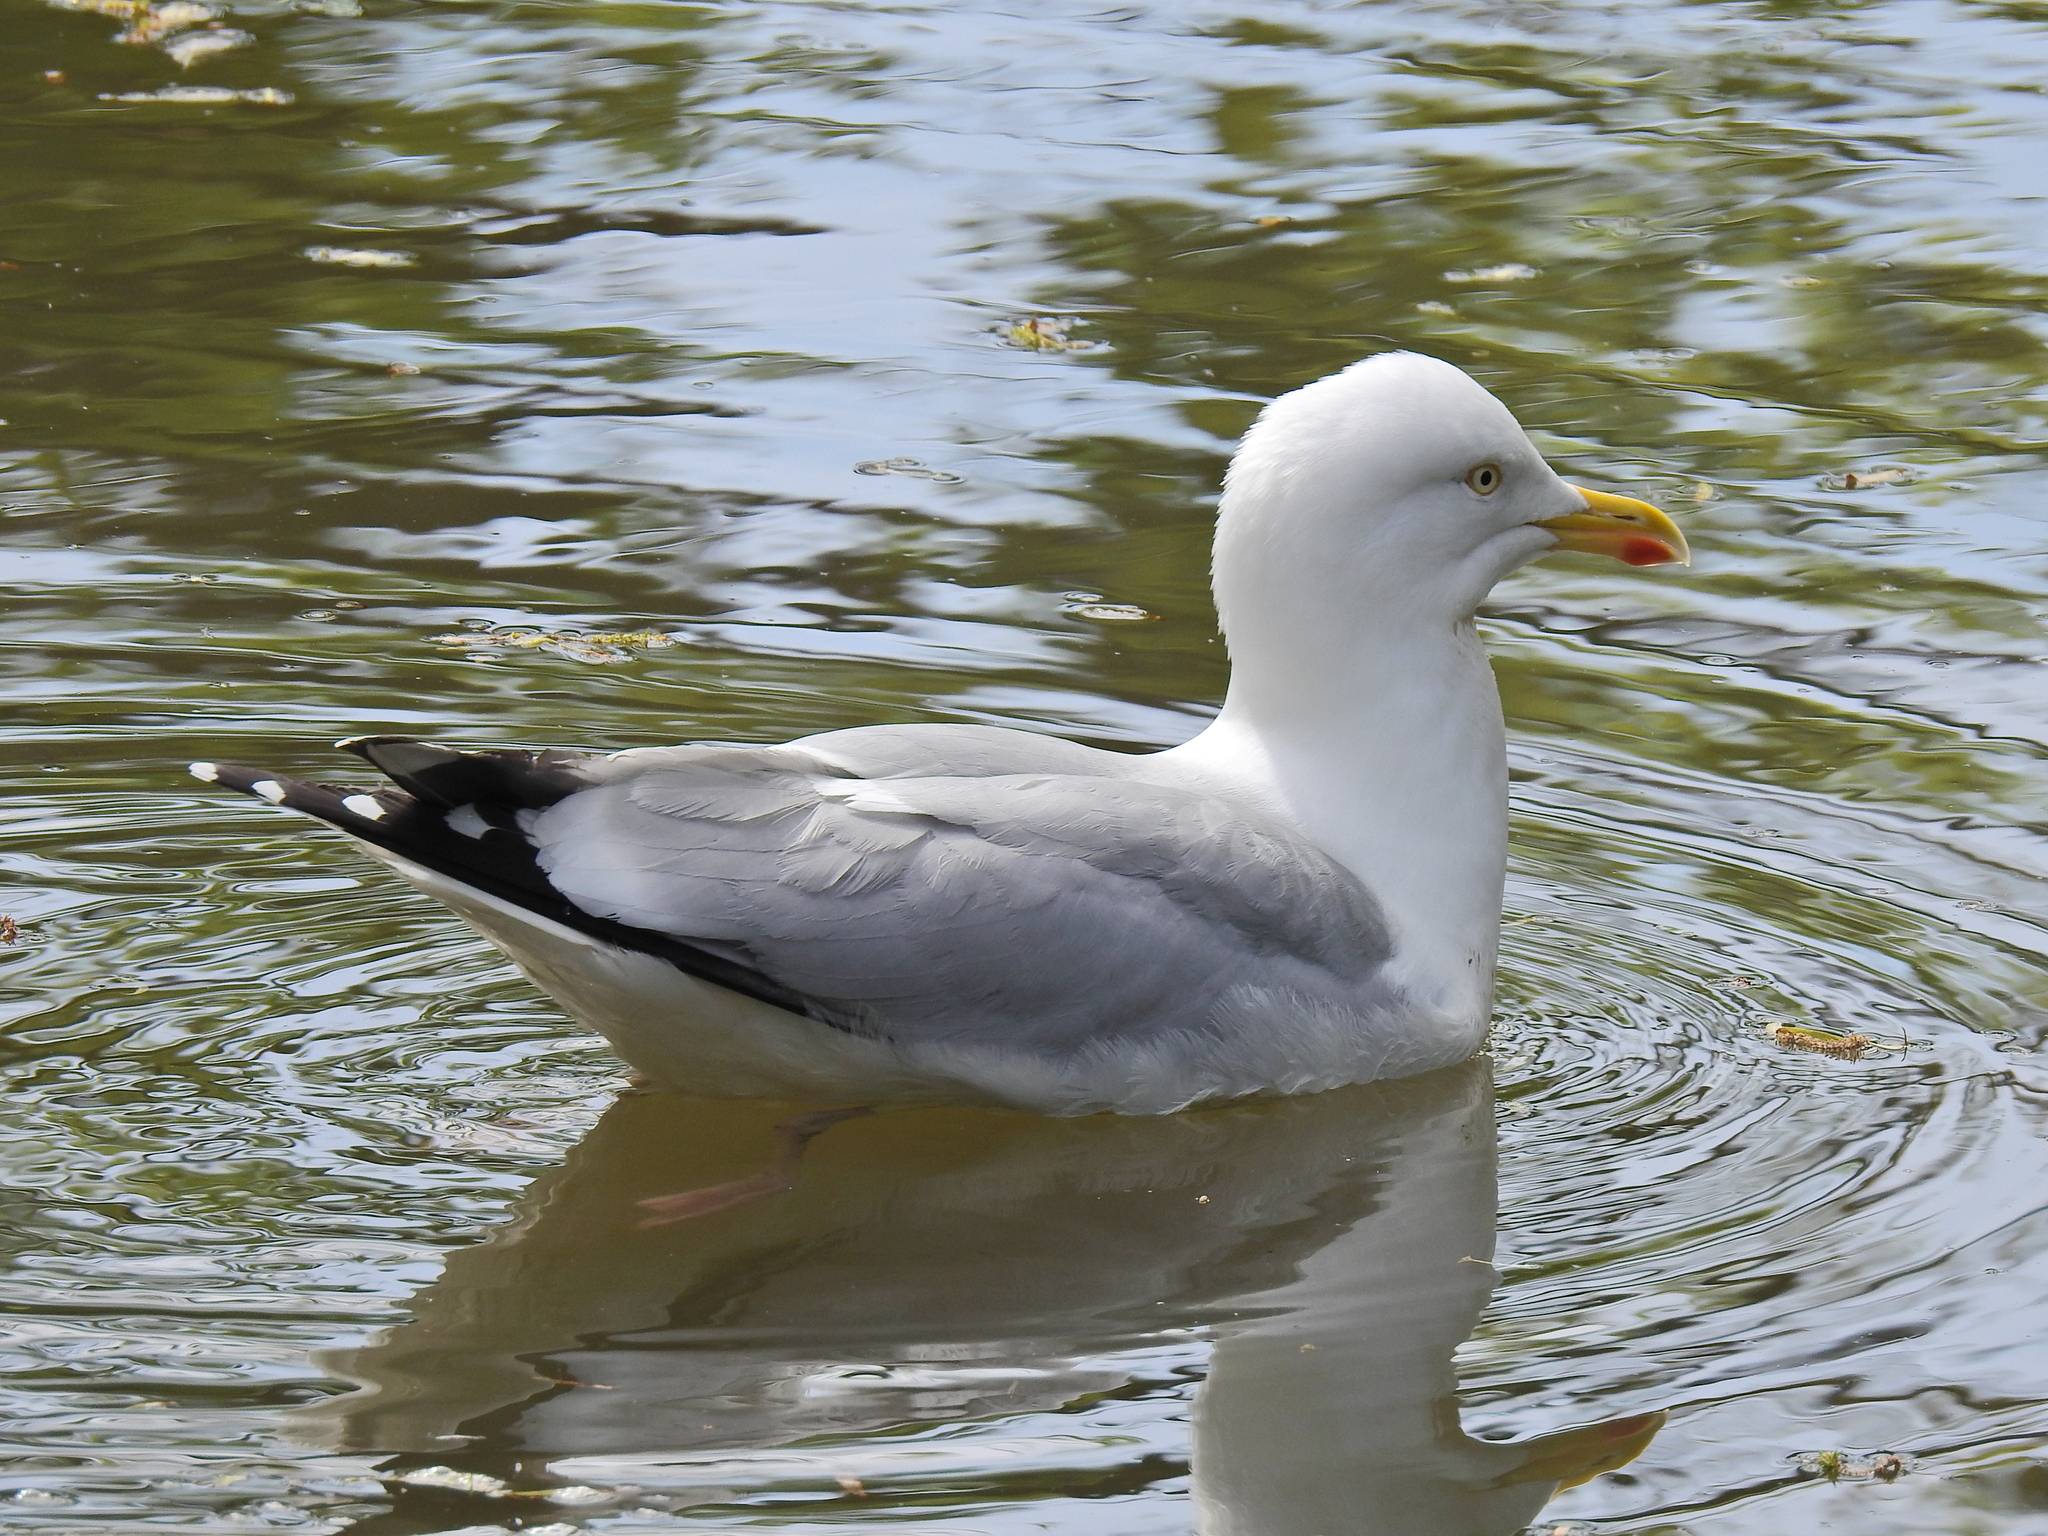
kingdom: Animalia
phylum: Chordata
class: Aves
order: Charadriiformes
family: Laridae
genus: Larus
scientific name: Larus argentatus
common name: Herring gull
